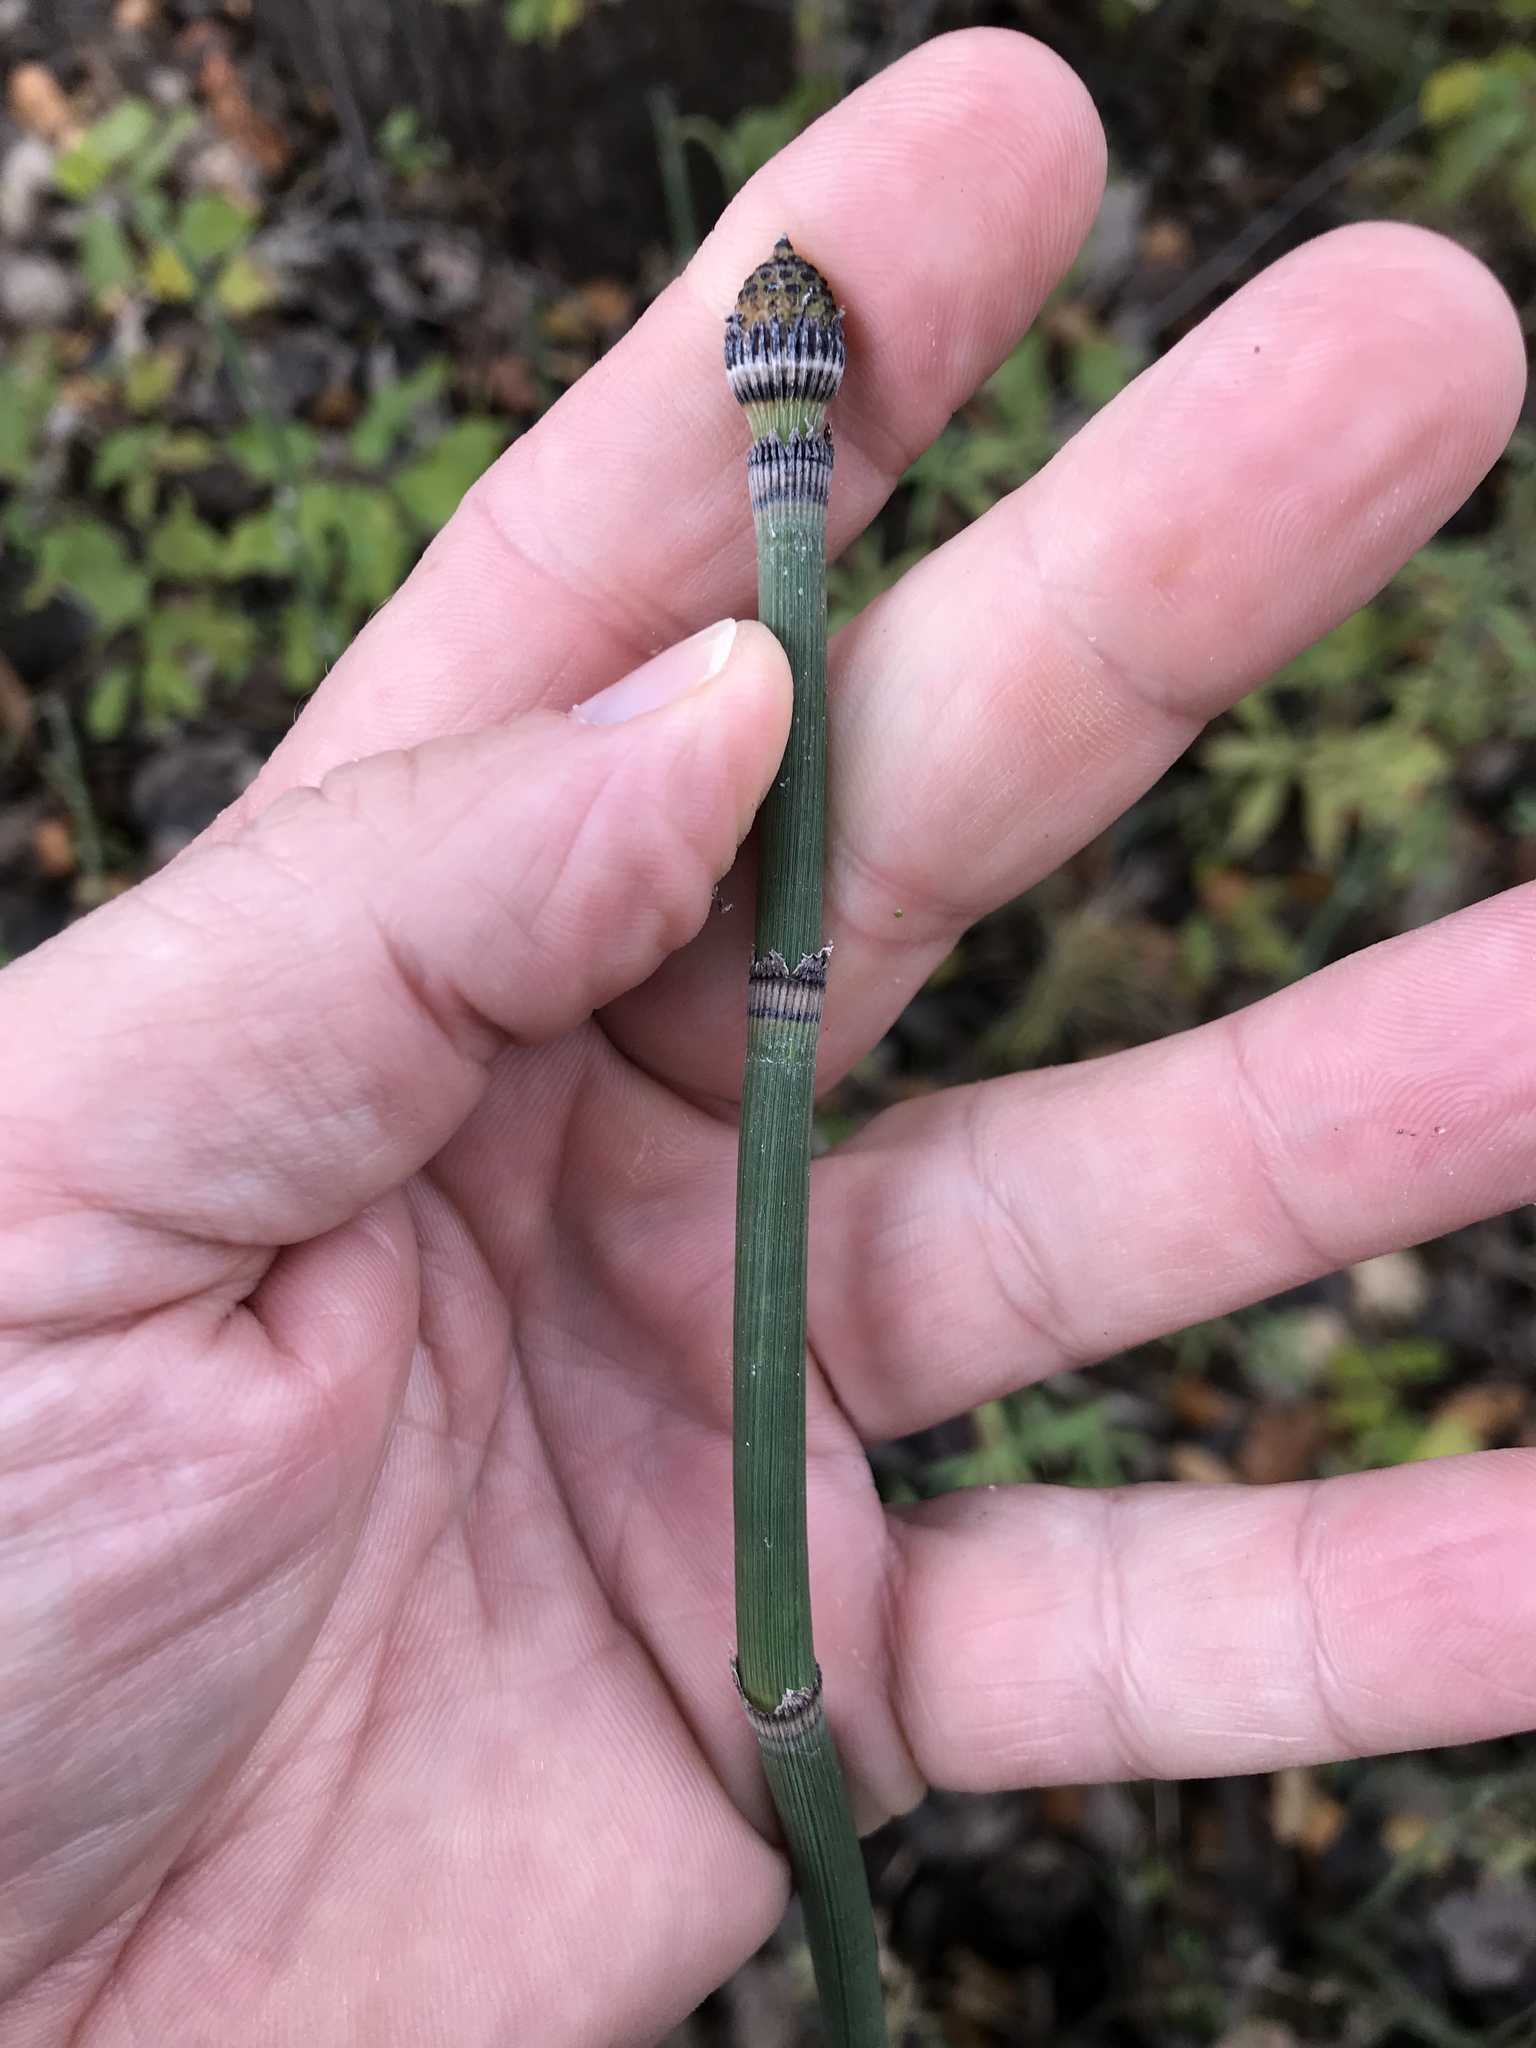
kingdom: Plantae
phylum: Tracheophyta
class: Polypodiopsida
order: Equisetales
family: Equisetaceae
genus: Equisetum
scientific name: Equisetum hyemale
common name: Rough horsetail
